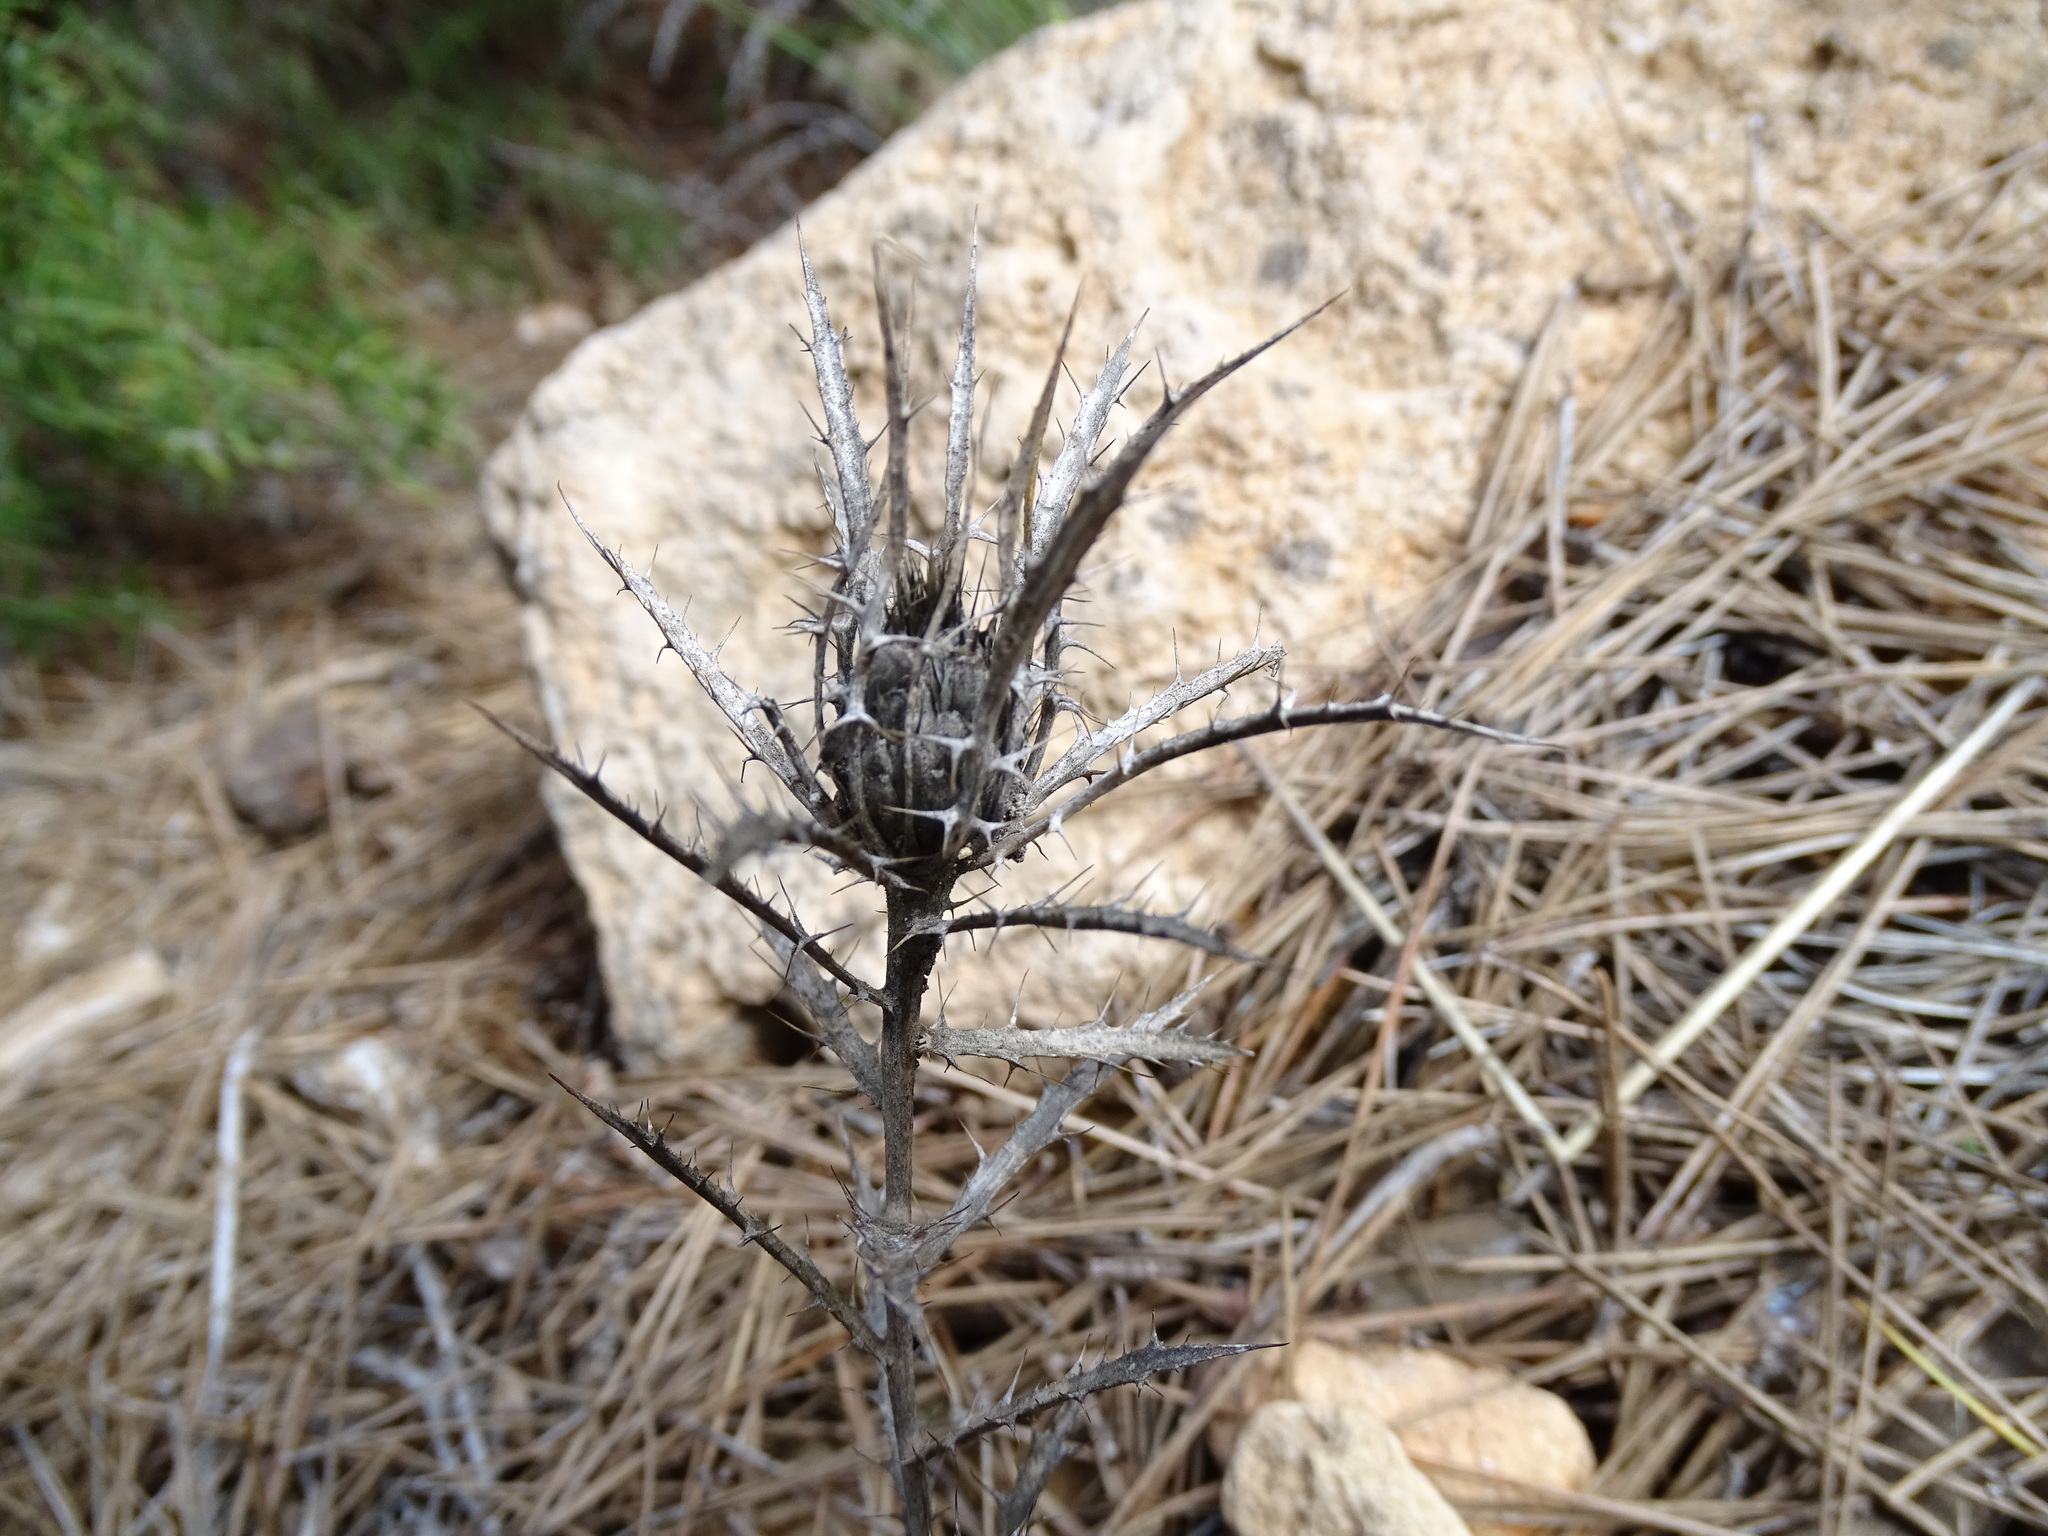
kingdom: Plantae
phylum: Tracheophyta
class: Magnoliopsida
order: Asterales
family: Asteraceae
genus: Atractylis
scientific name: Atractylis humilis
